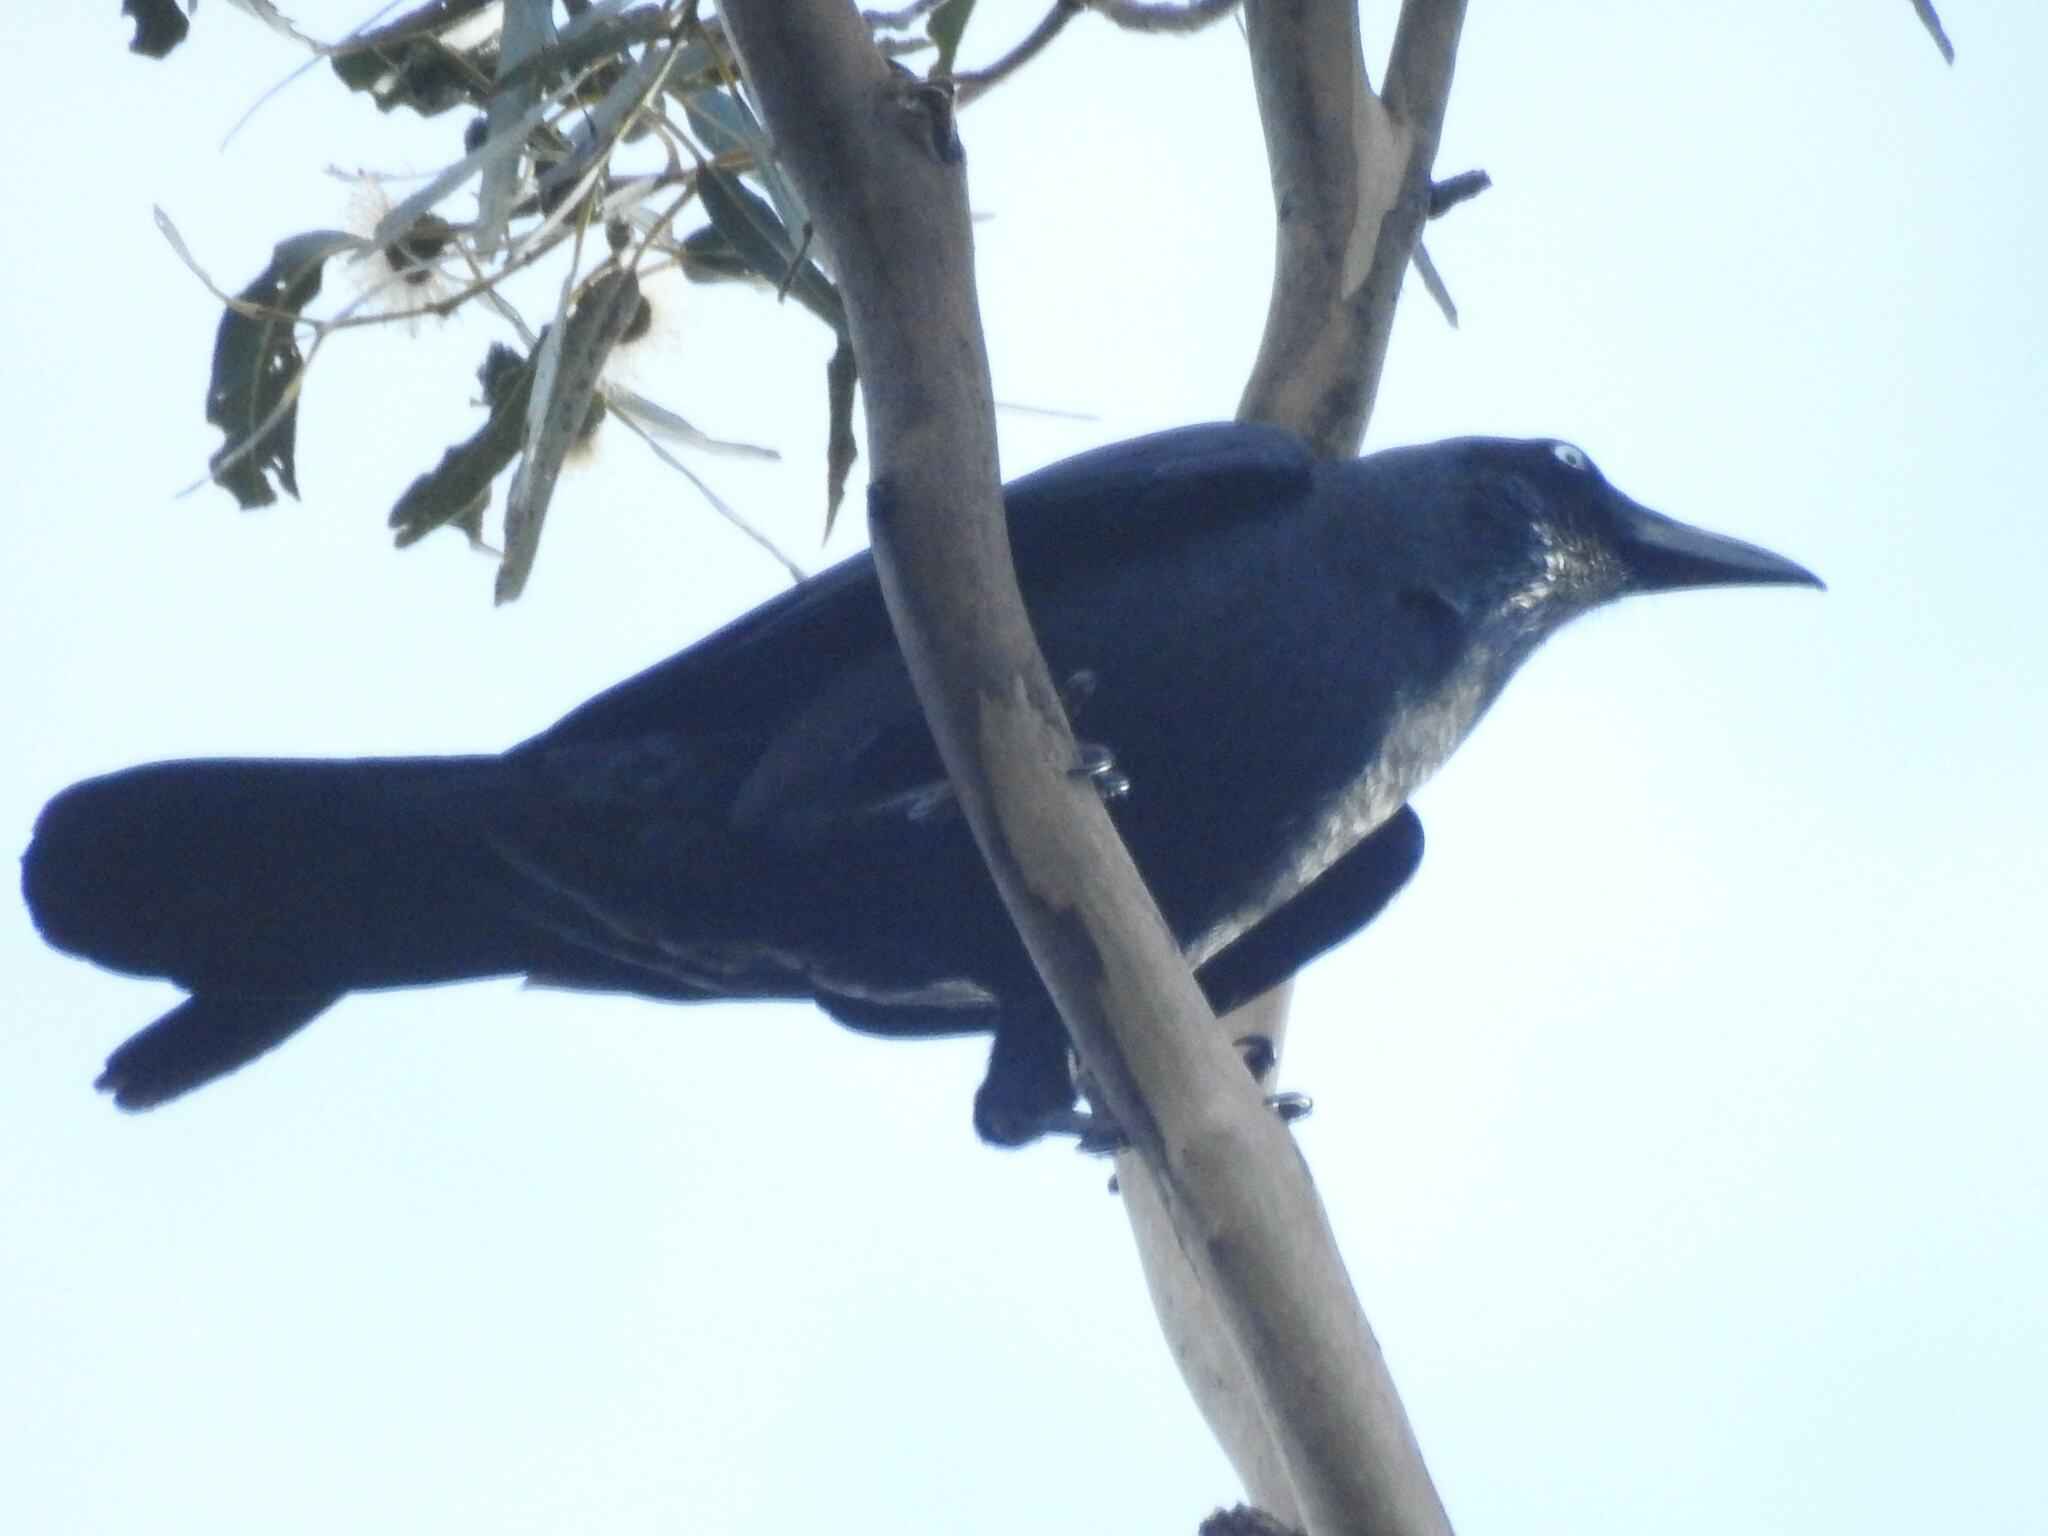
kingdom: Animalia
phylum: Chordata
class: Aves
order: Passeriformes
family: Corvidae
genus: Corvus
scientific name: Corvus tasmanicus
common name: Forest raven
